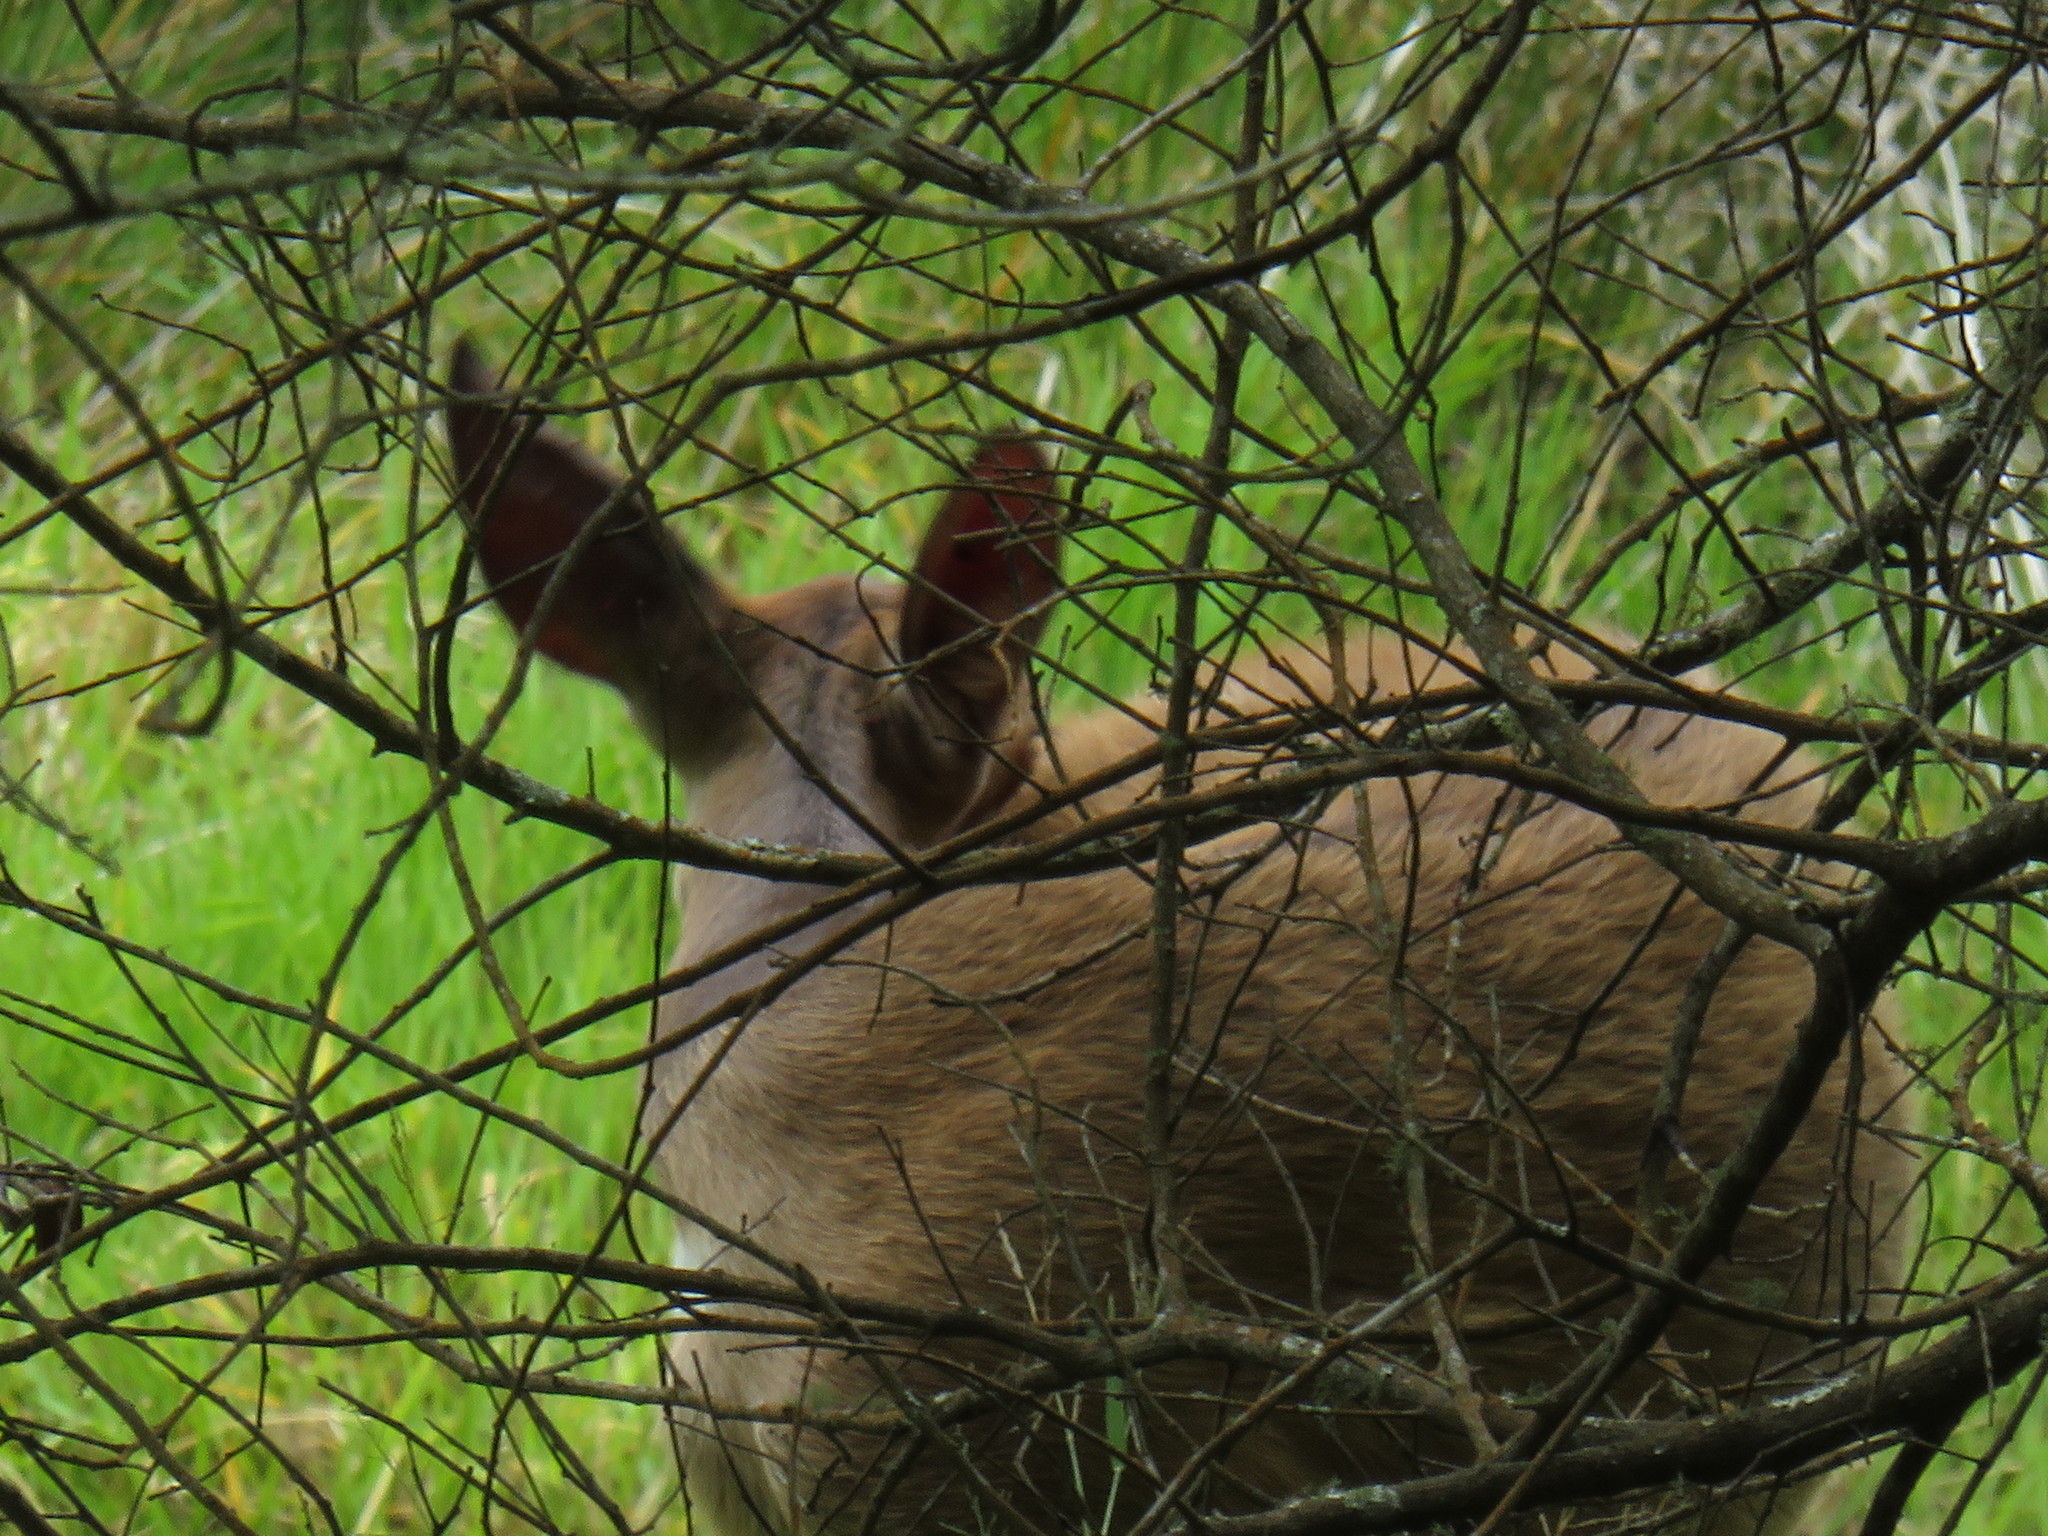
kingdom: Animalia
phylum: Chordata
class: Mammalia
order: Artiodactyla
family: Bovidae
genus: Tragelaphus
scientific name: Tragelaphus scriptus
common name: Bushbuck
